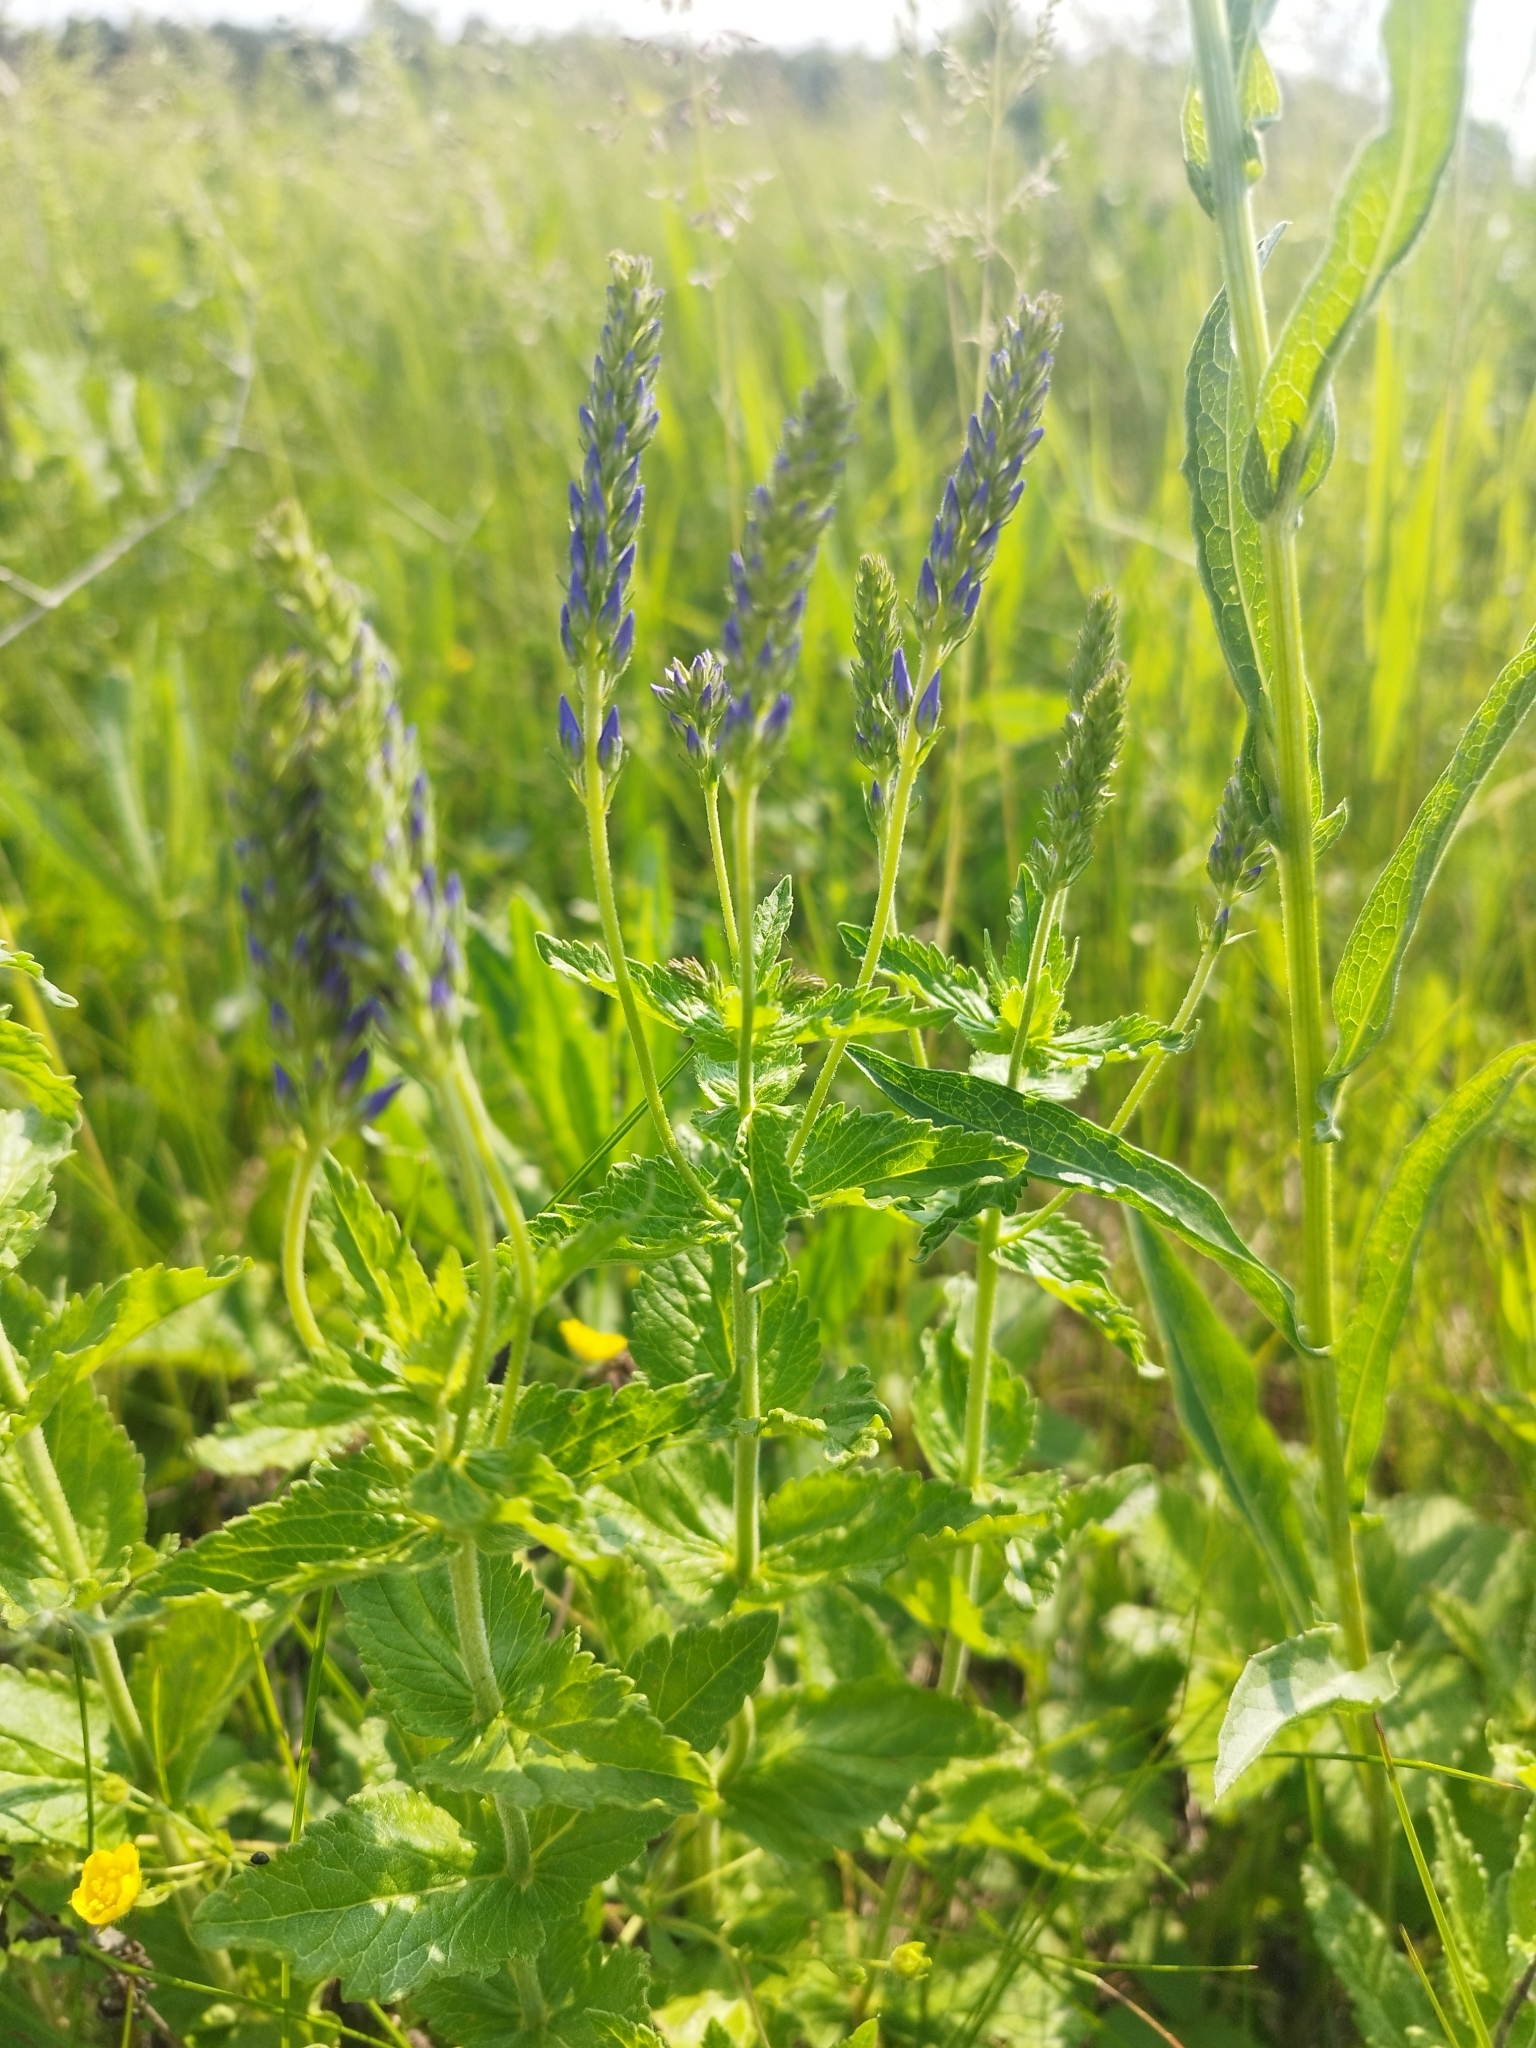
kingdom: Plantae
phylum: Tracheophyta
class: Magnoliopsida
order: Lamiales
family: Plantaginaceae
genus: Veronica
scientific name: Veronica teucrium
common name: Large speedwell
